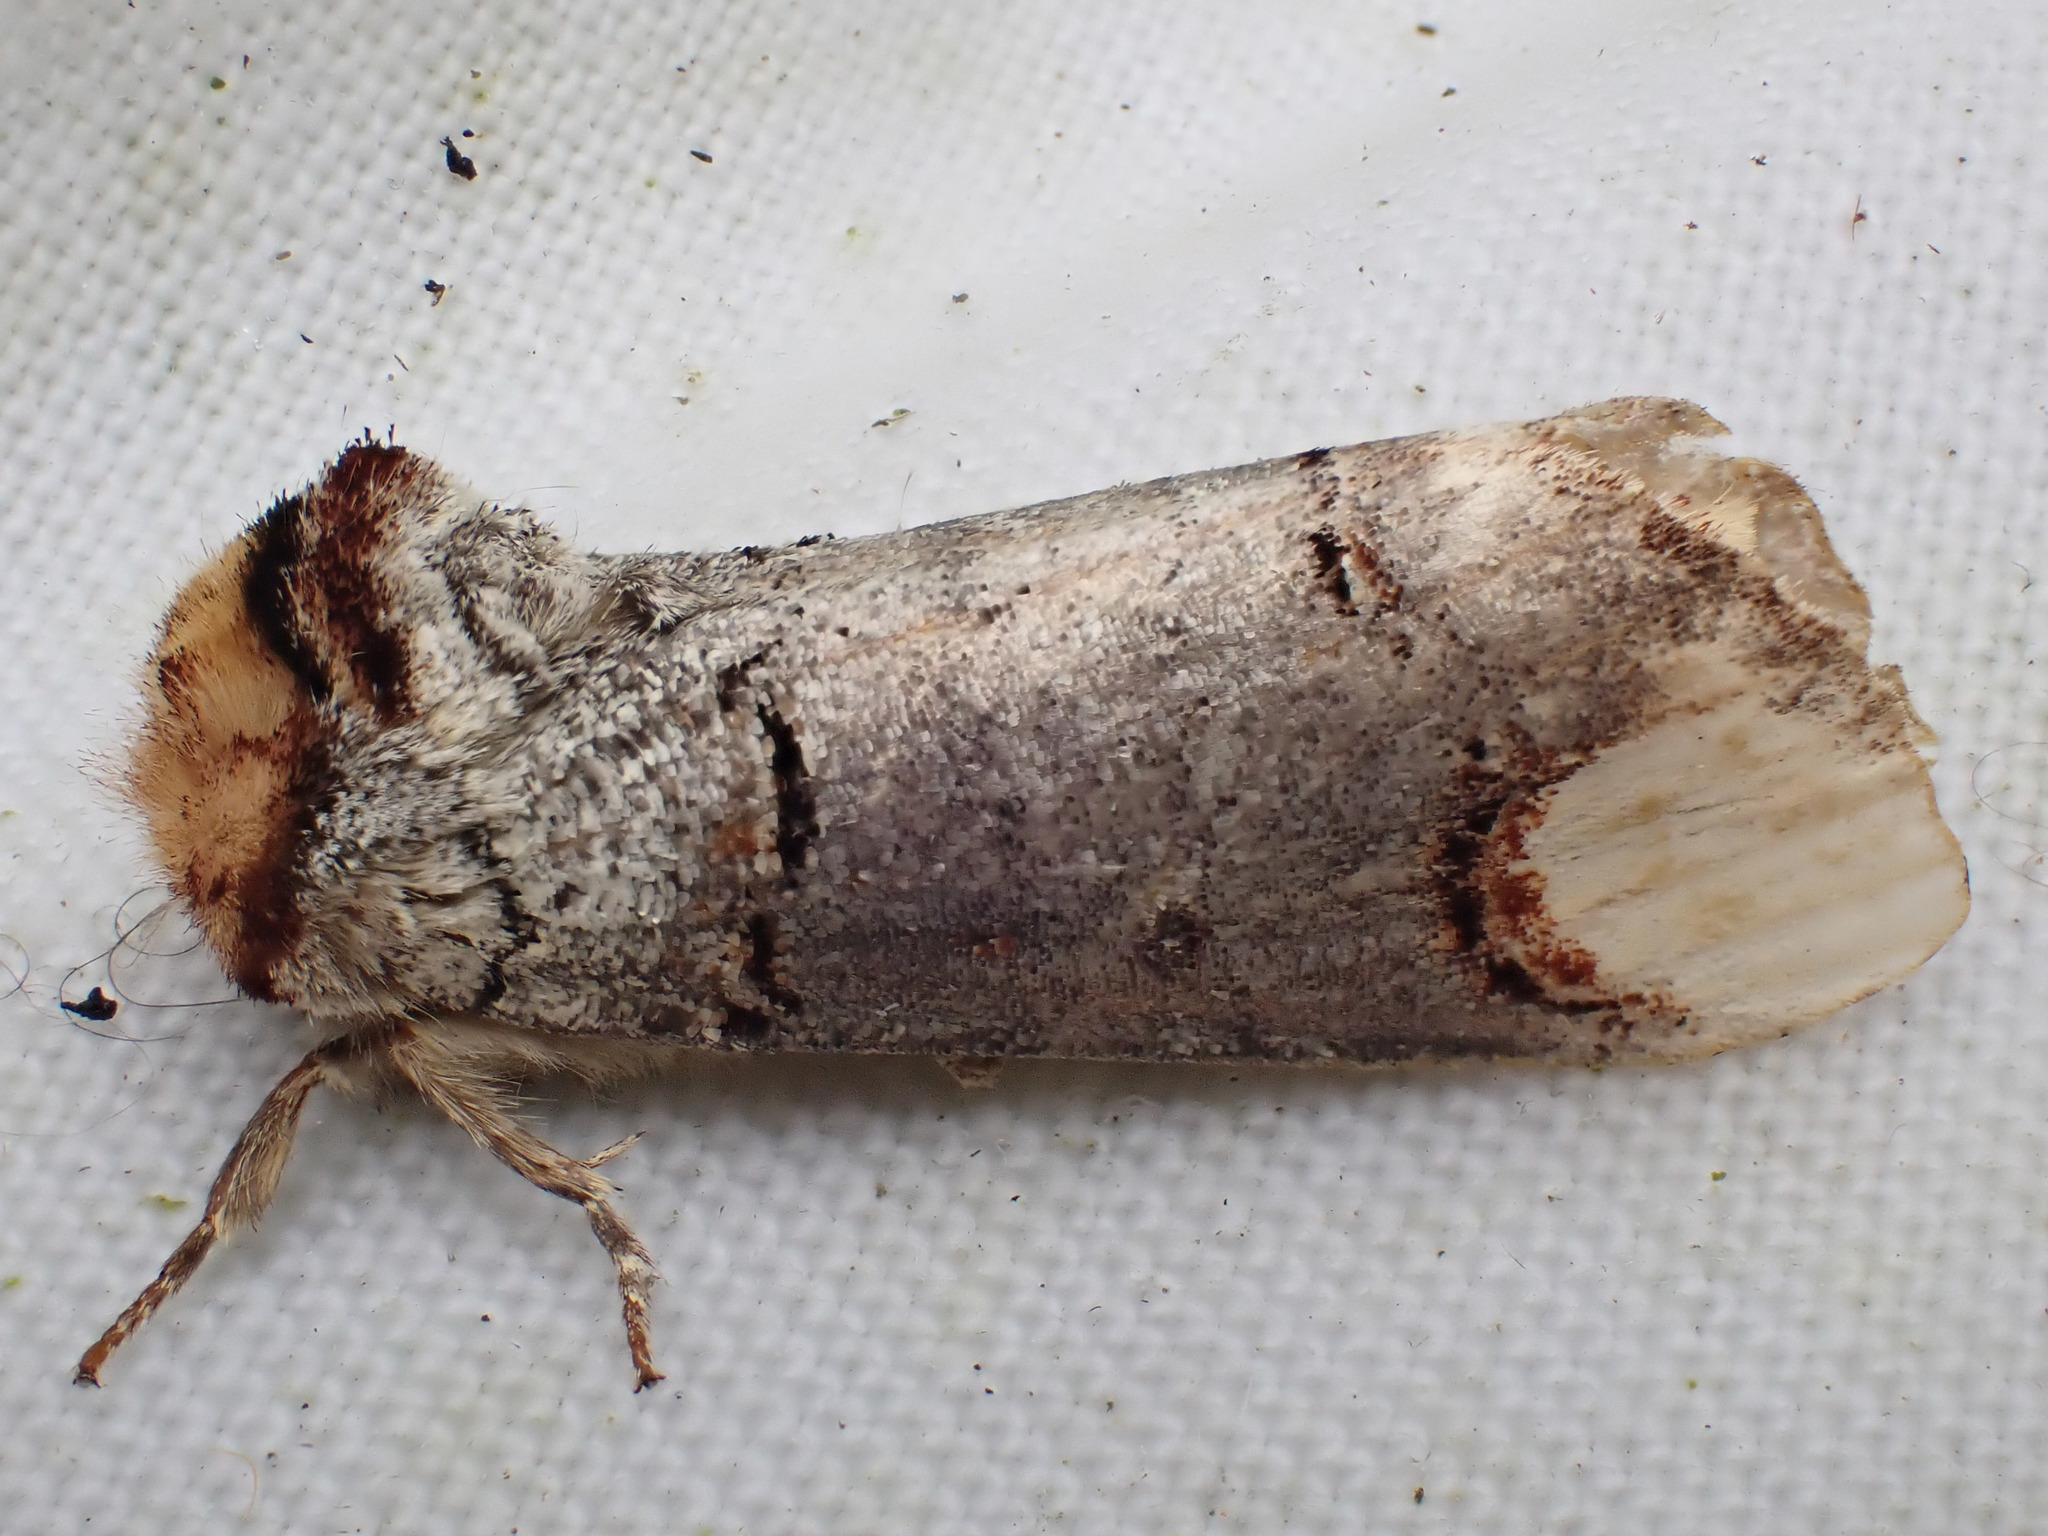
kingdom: Animalia
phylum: Arthropoda
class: Insecta
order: Lepidoptera
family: Notodontidae
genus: Phalera
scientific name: Phalera bucephala
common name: Buff-tip
